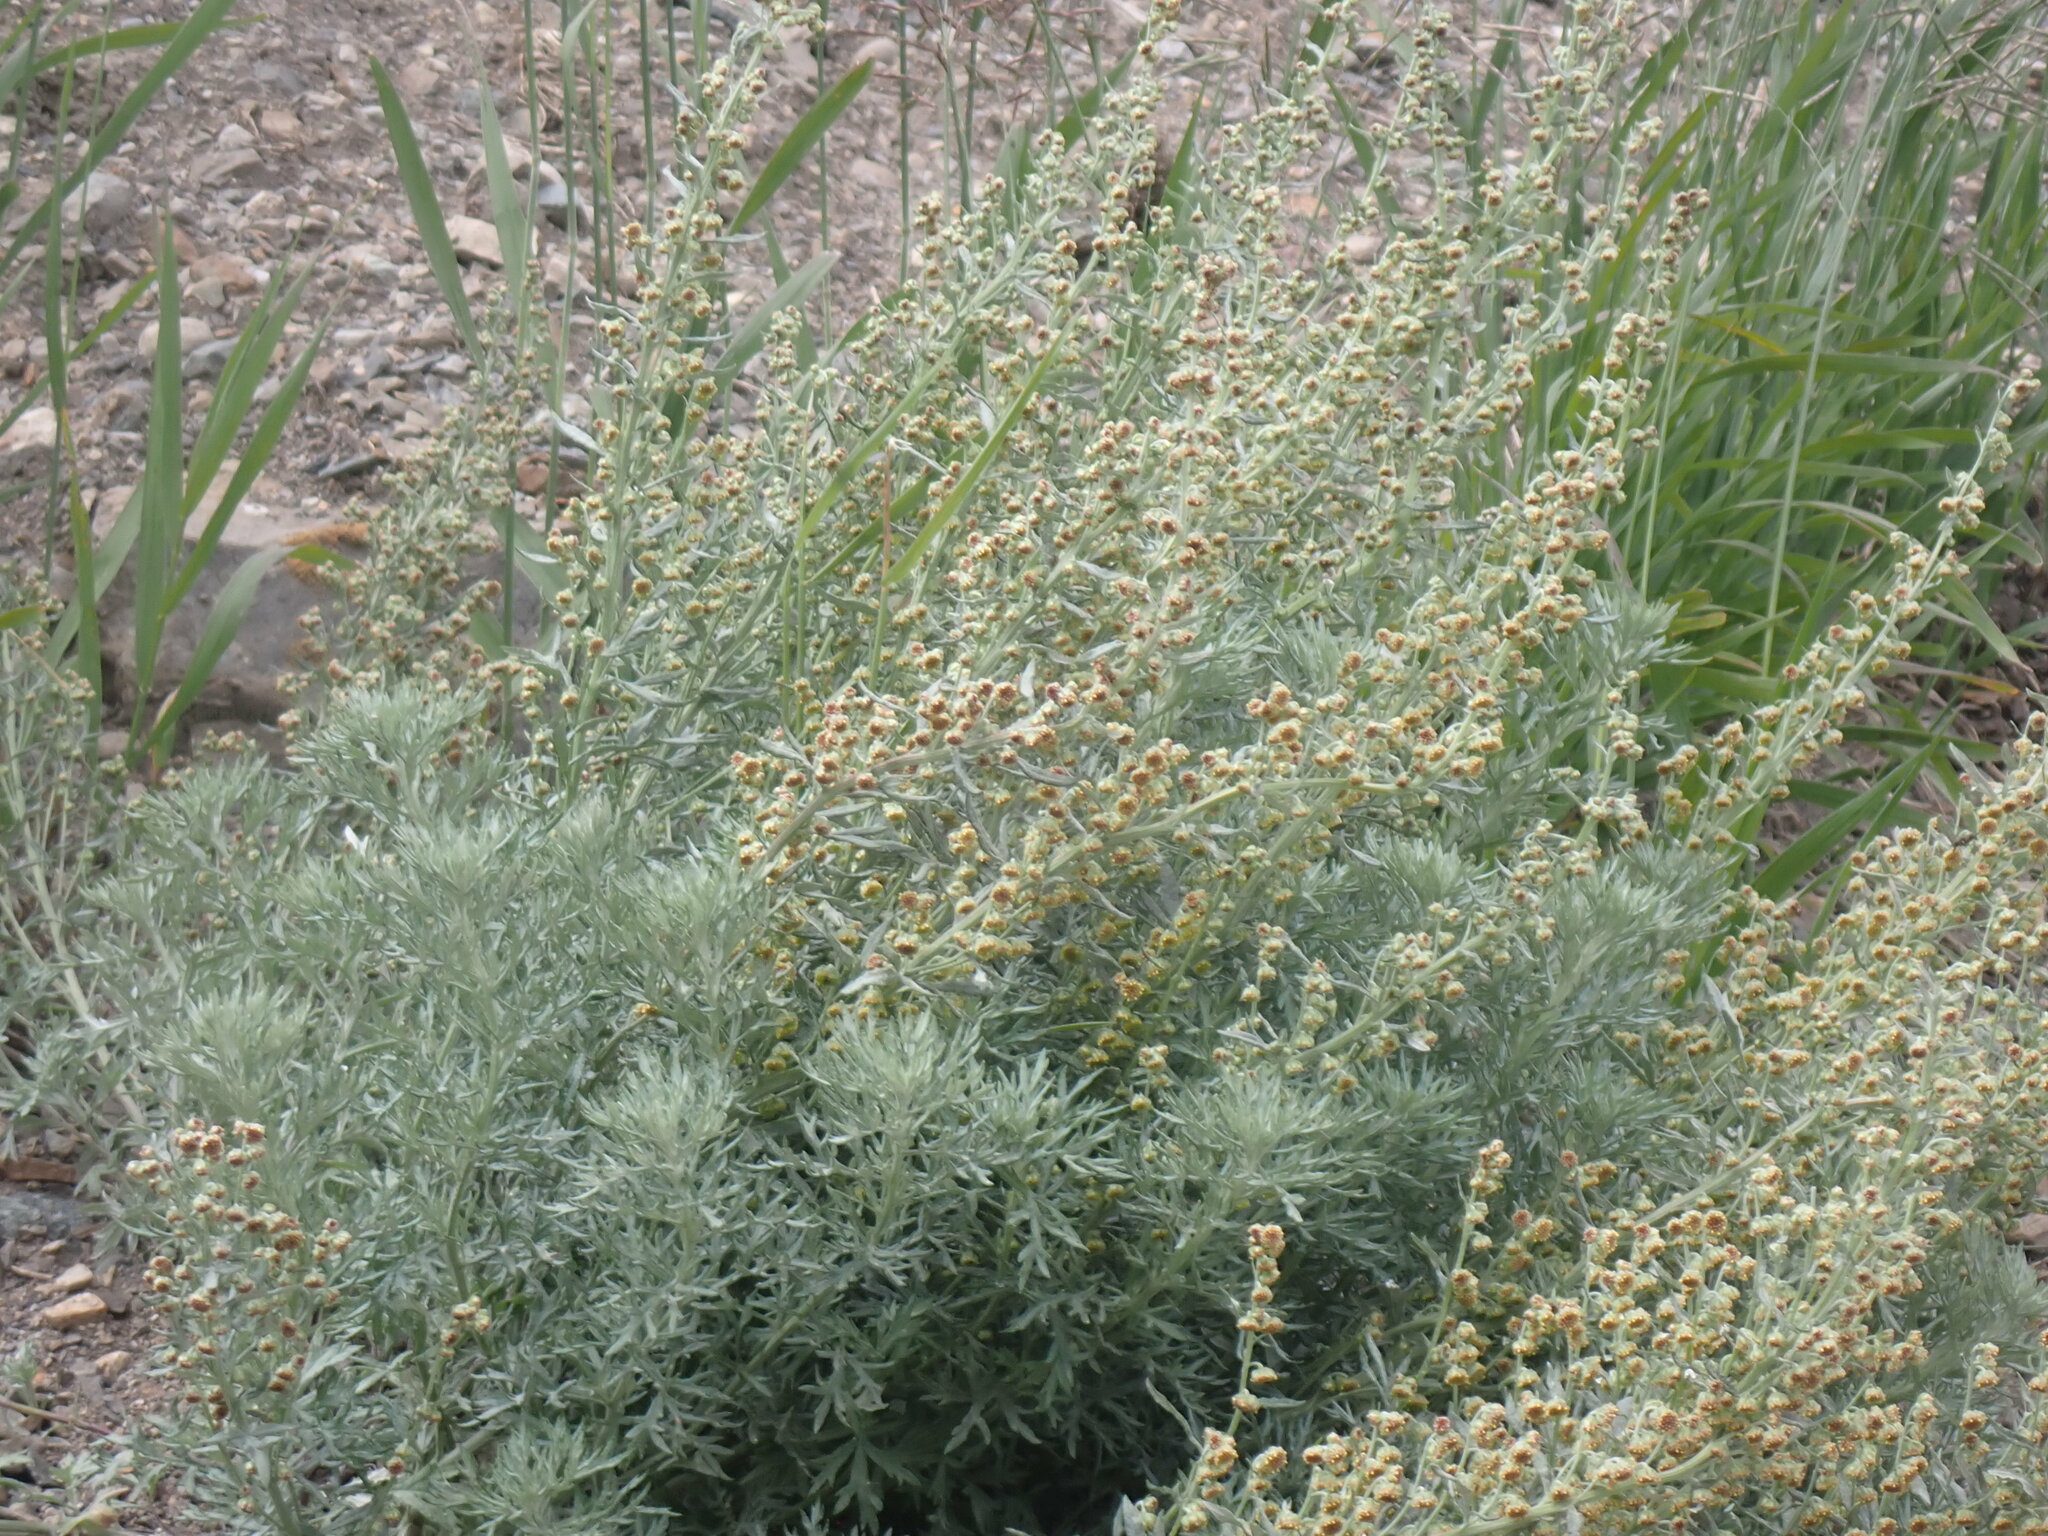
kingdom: Plantae
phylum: Tracheophyta
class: Magnoliopsida
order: Asterales
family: Asteraceae
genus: Artemisia
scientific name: Artemisia michauxiana
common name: Lemon sagewort
